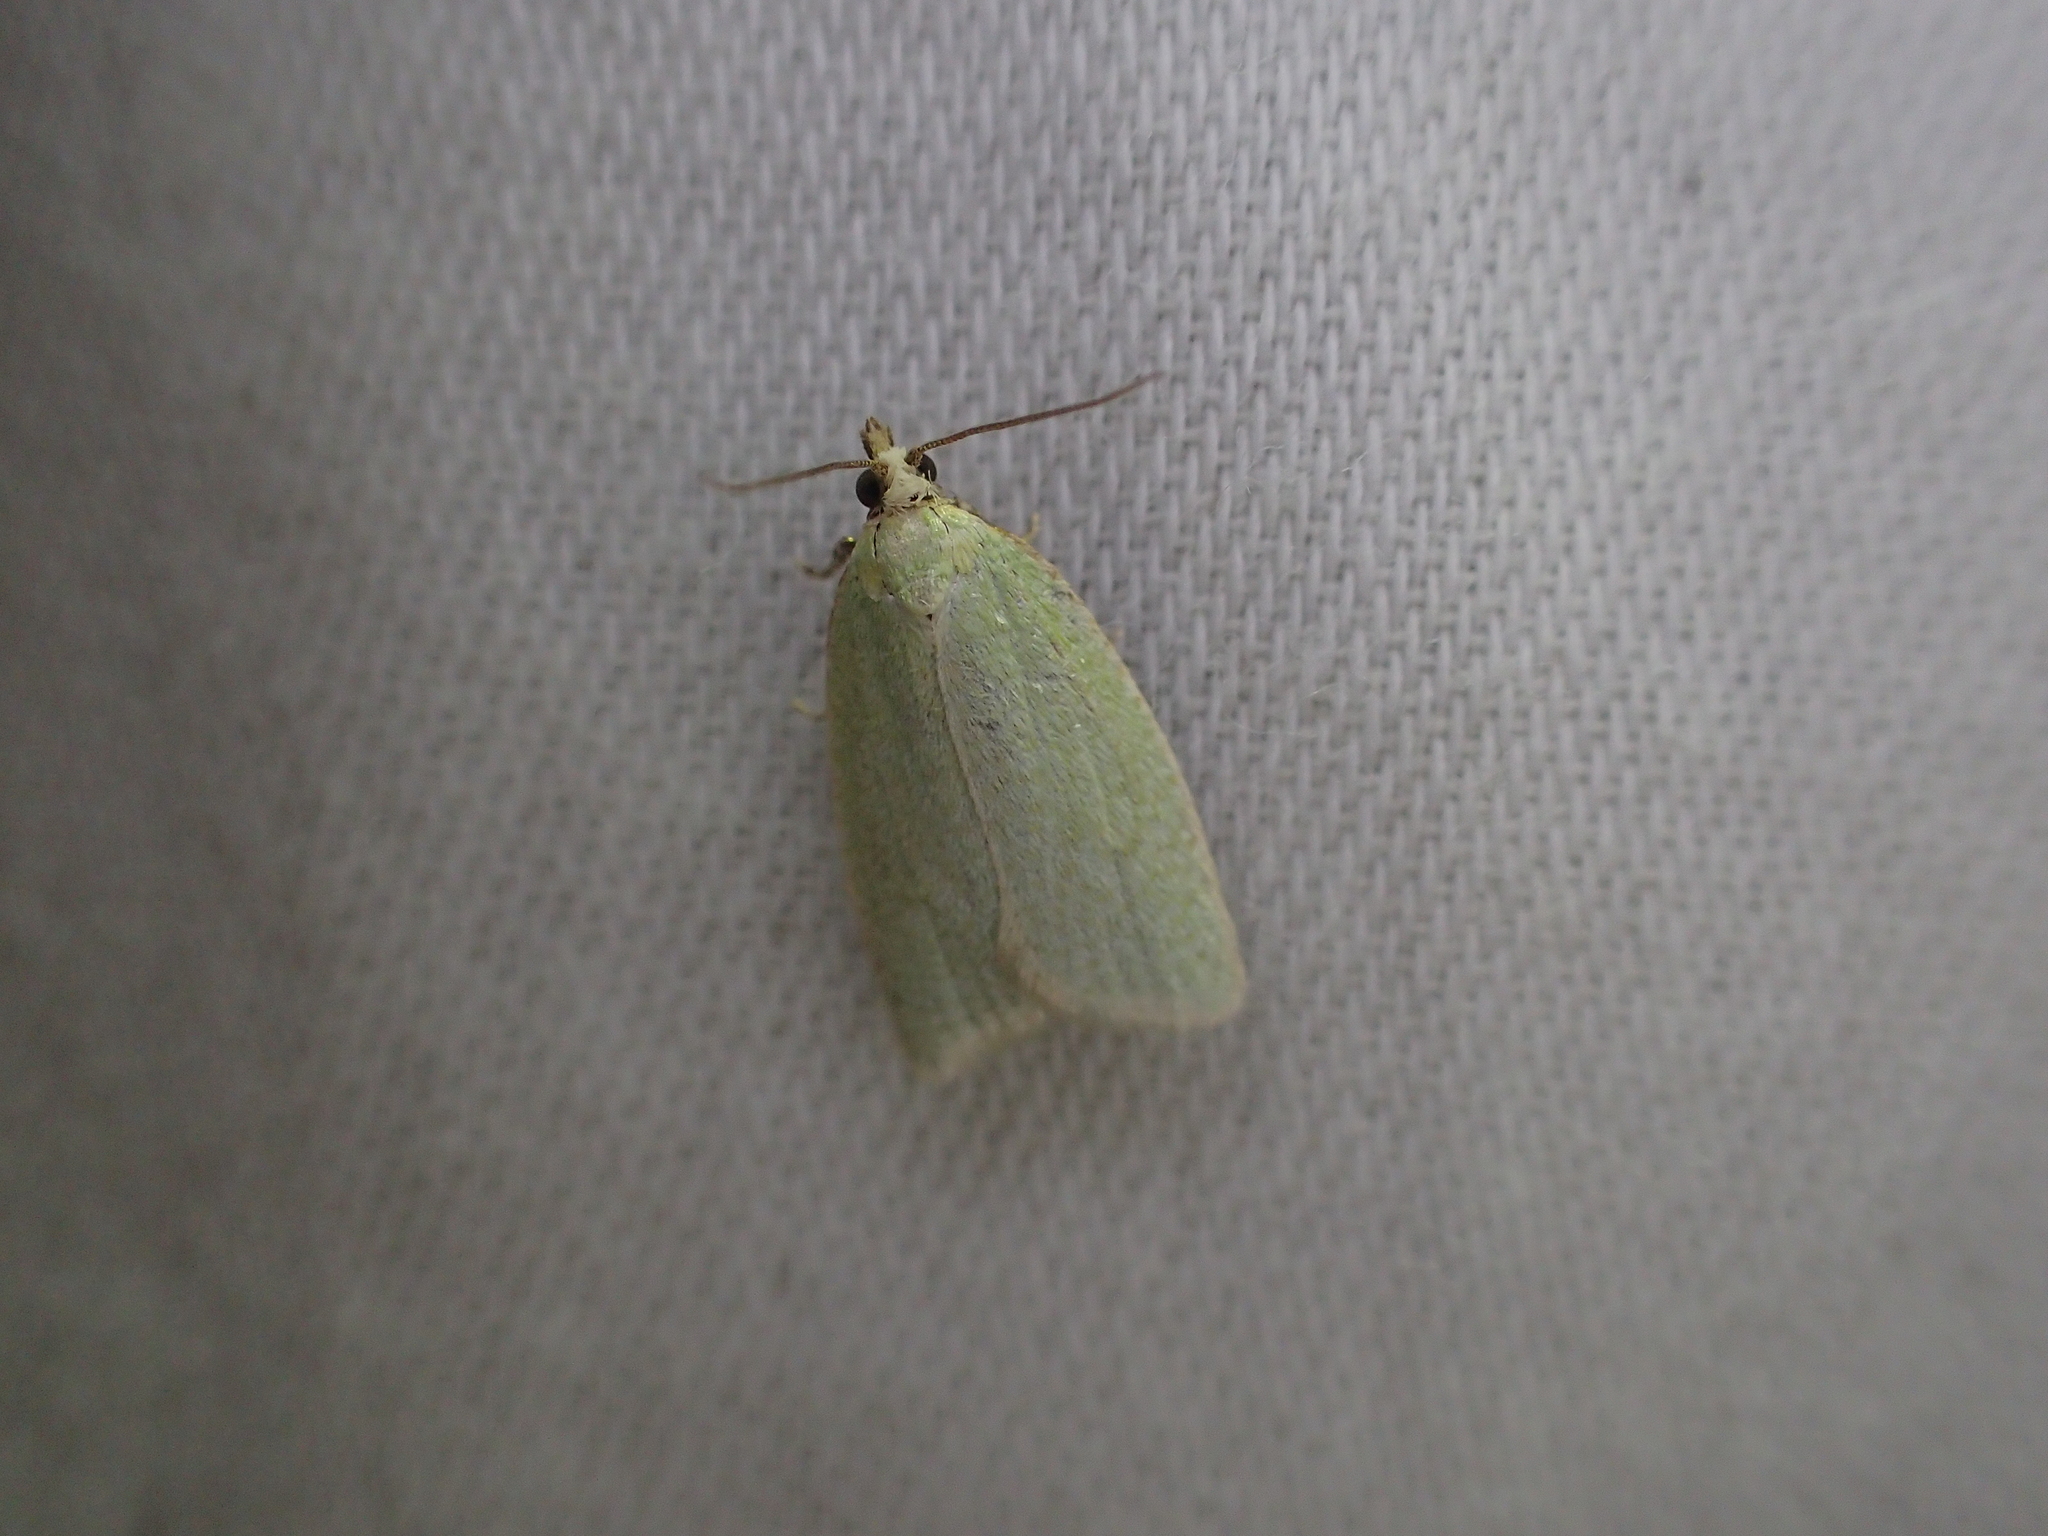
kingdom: Animalia
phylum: Arthropoda
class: Insecta
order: Lepidoptera
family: Tortricidae
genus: Tortrix
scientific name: Tortrix viridana
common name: Green oak tortrix
